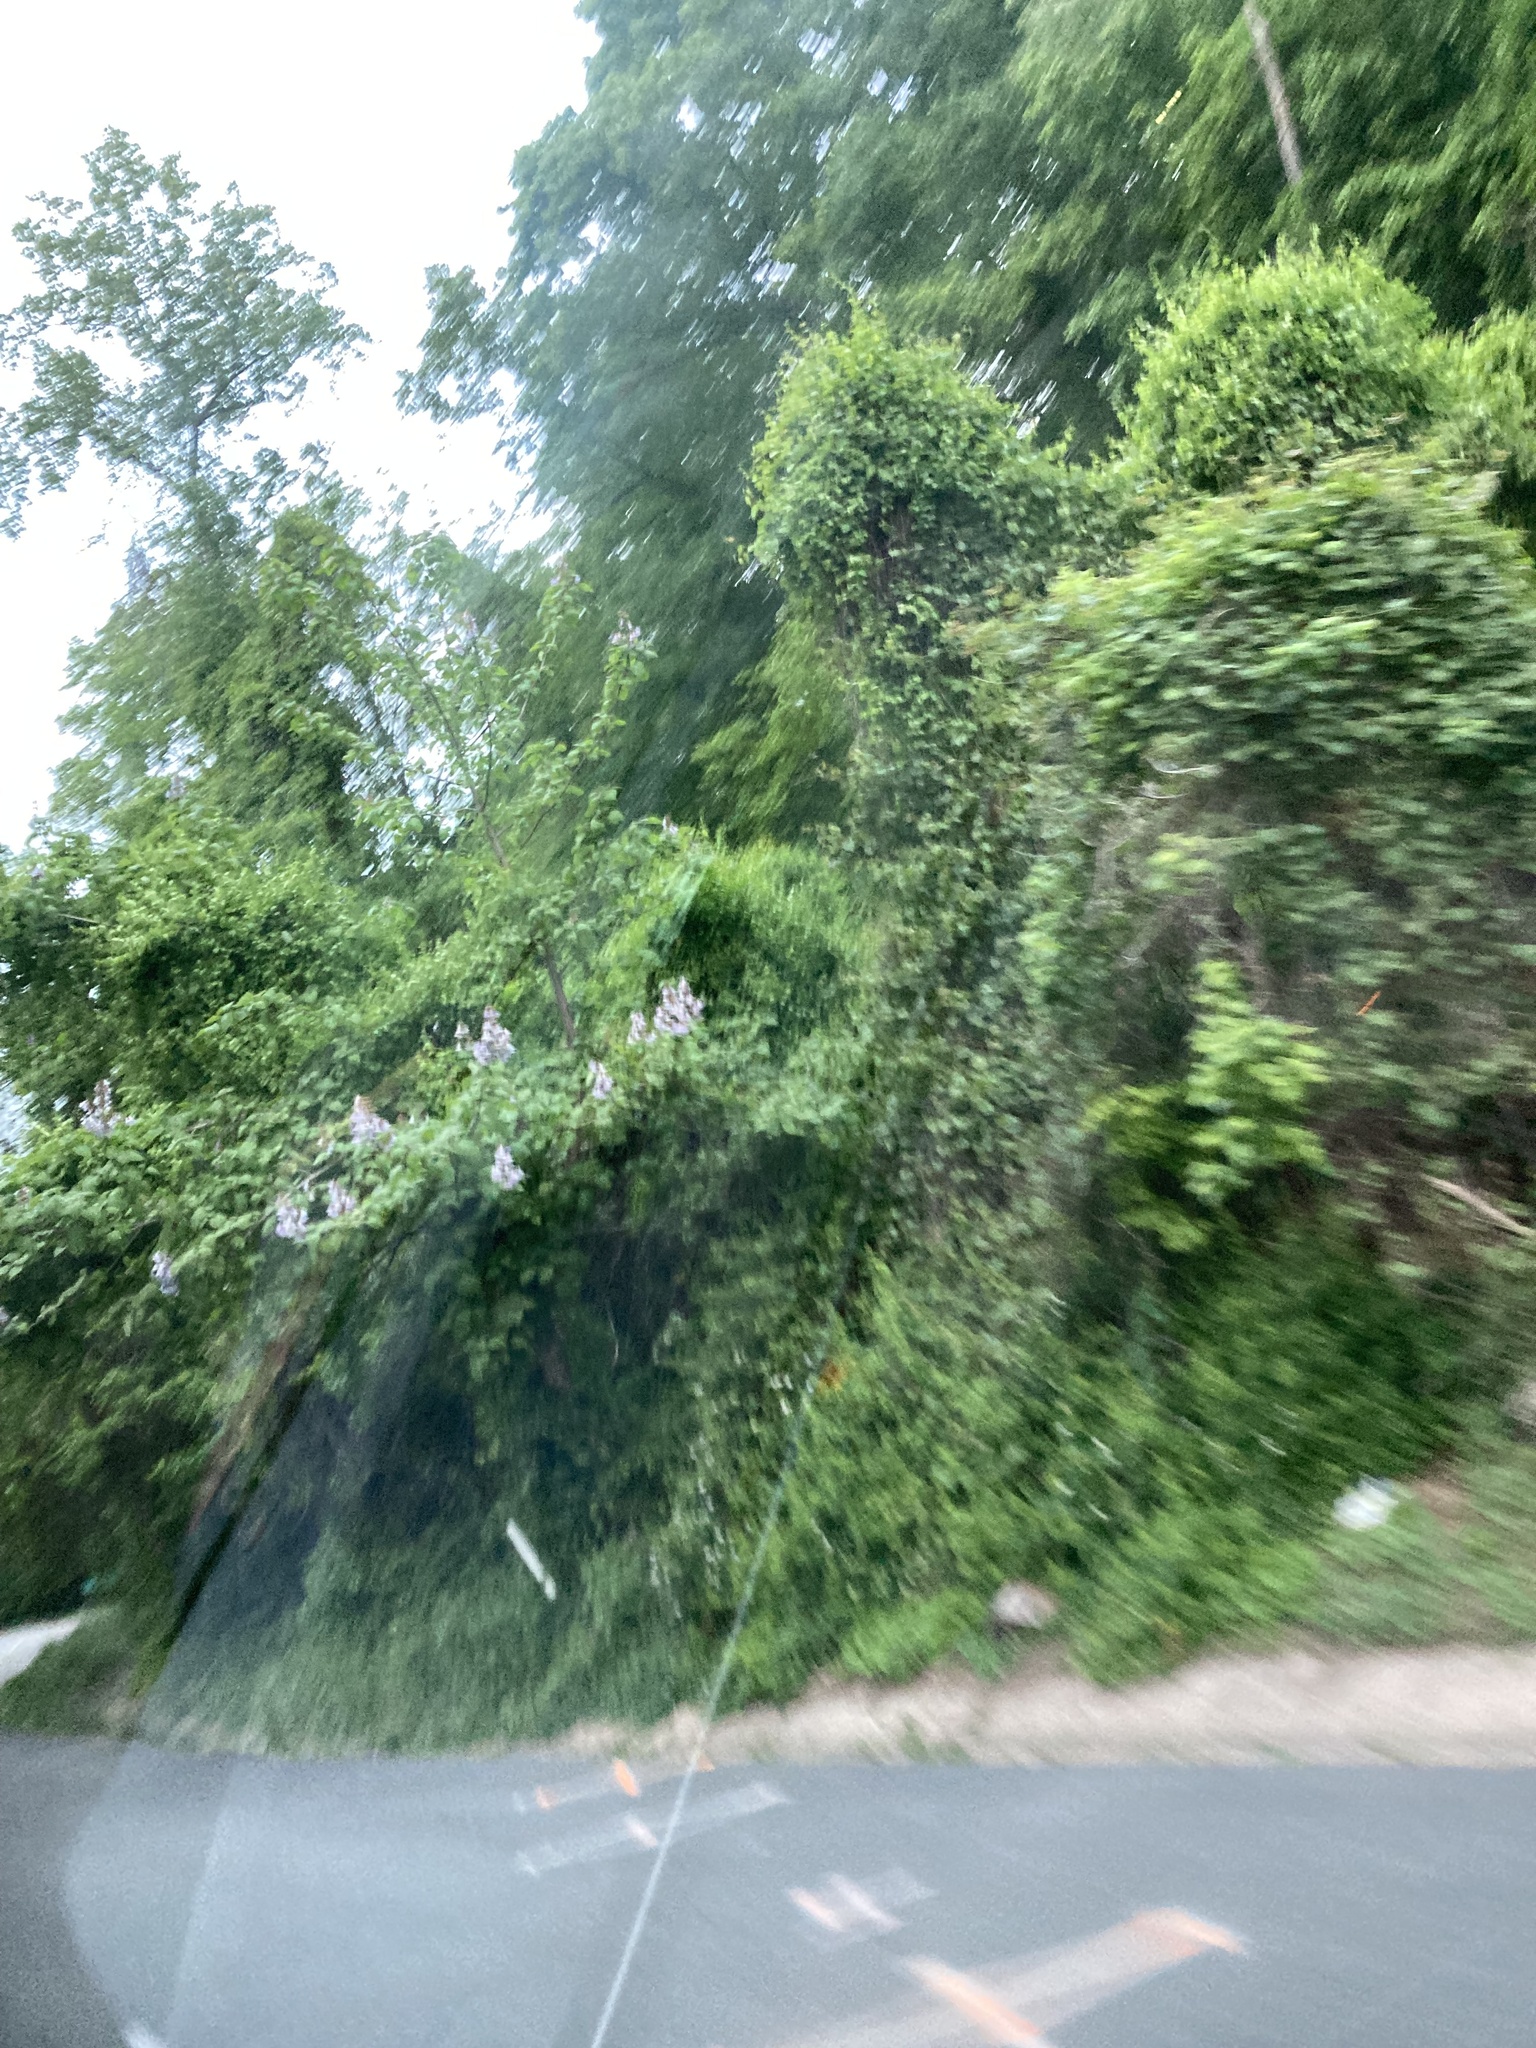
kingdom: Plantae
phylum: Tracheophyta
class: Magnoliopsida
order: Lamiales
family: Paulowniaceae
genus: Paulownia
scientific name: Paulownia tomentosa
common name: Foxglove-tree
